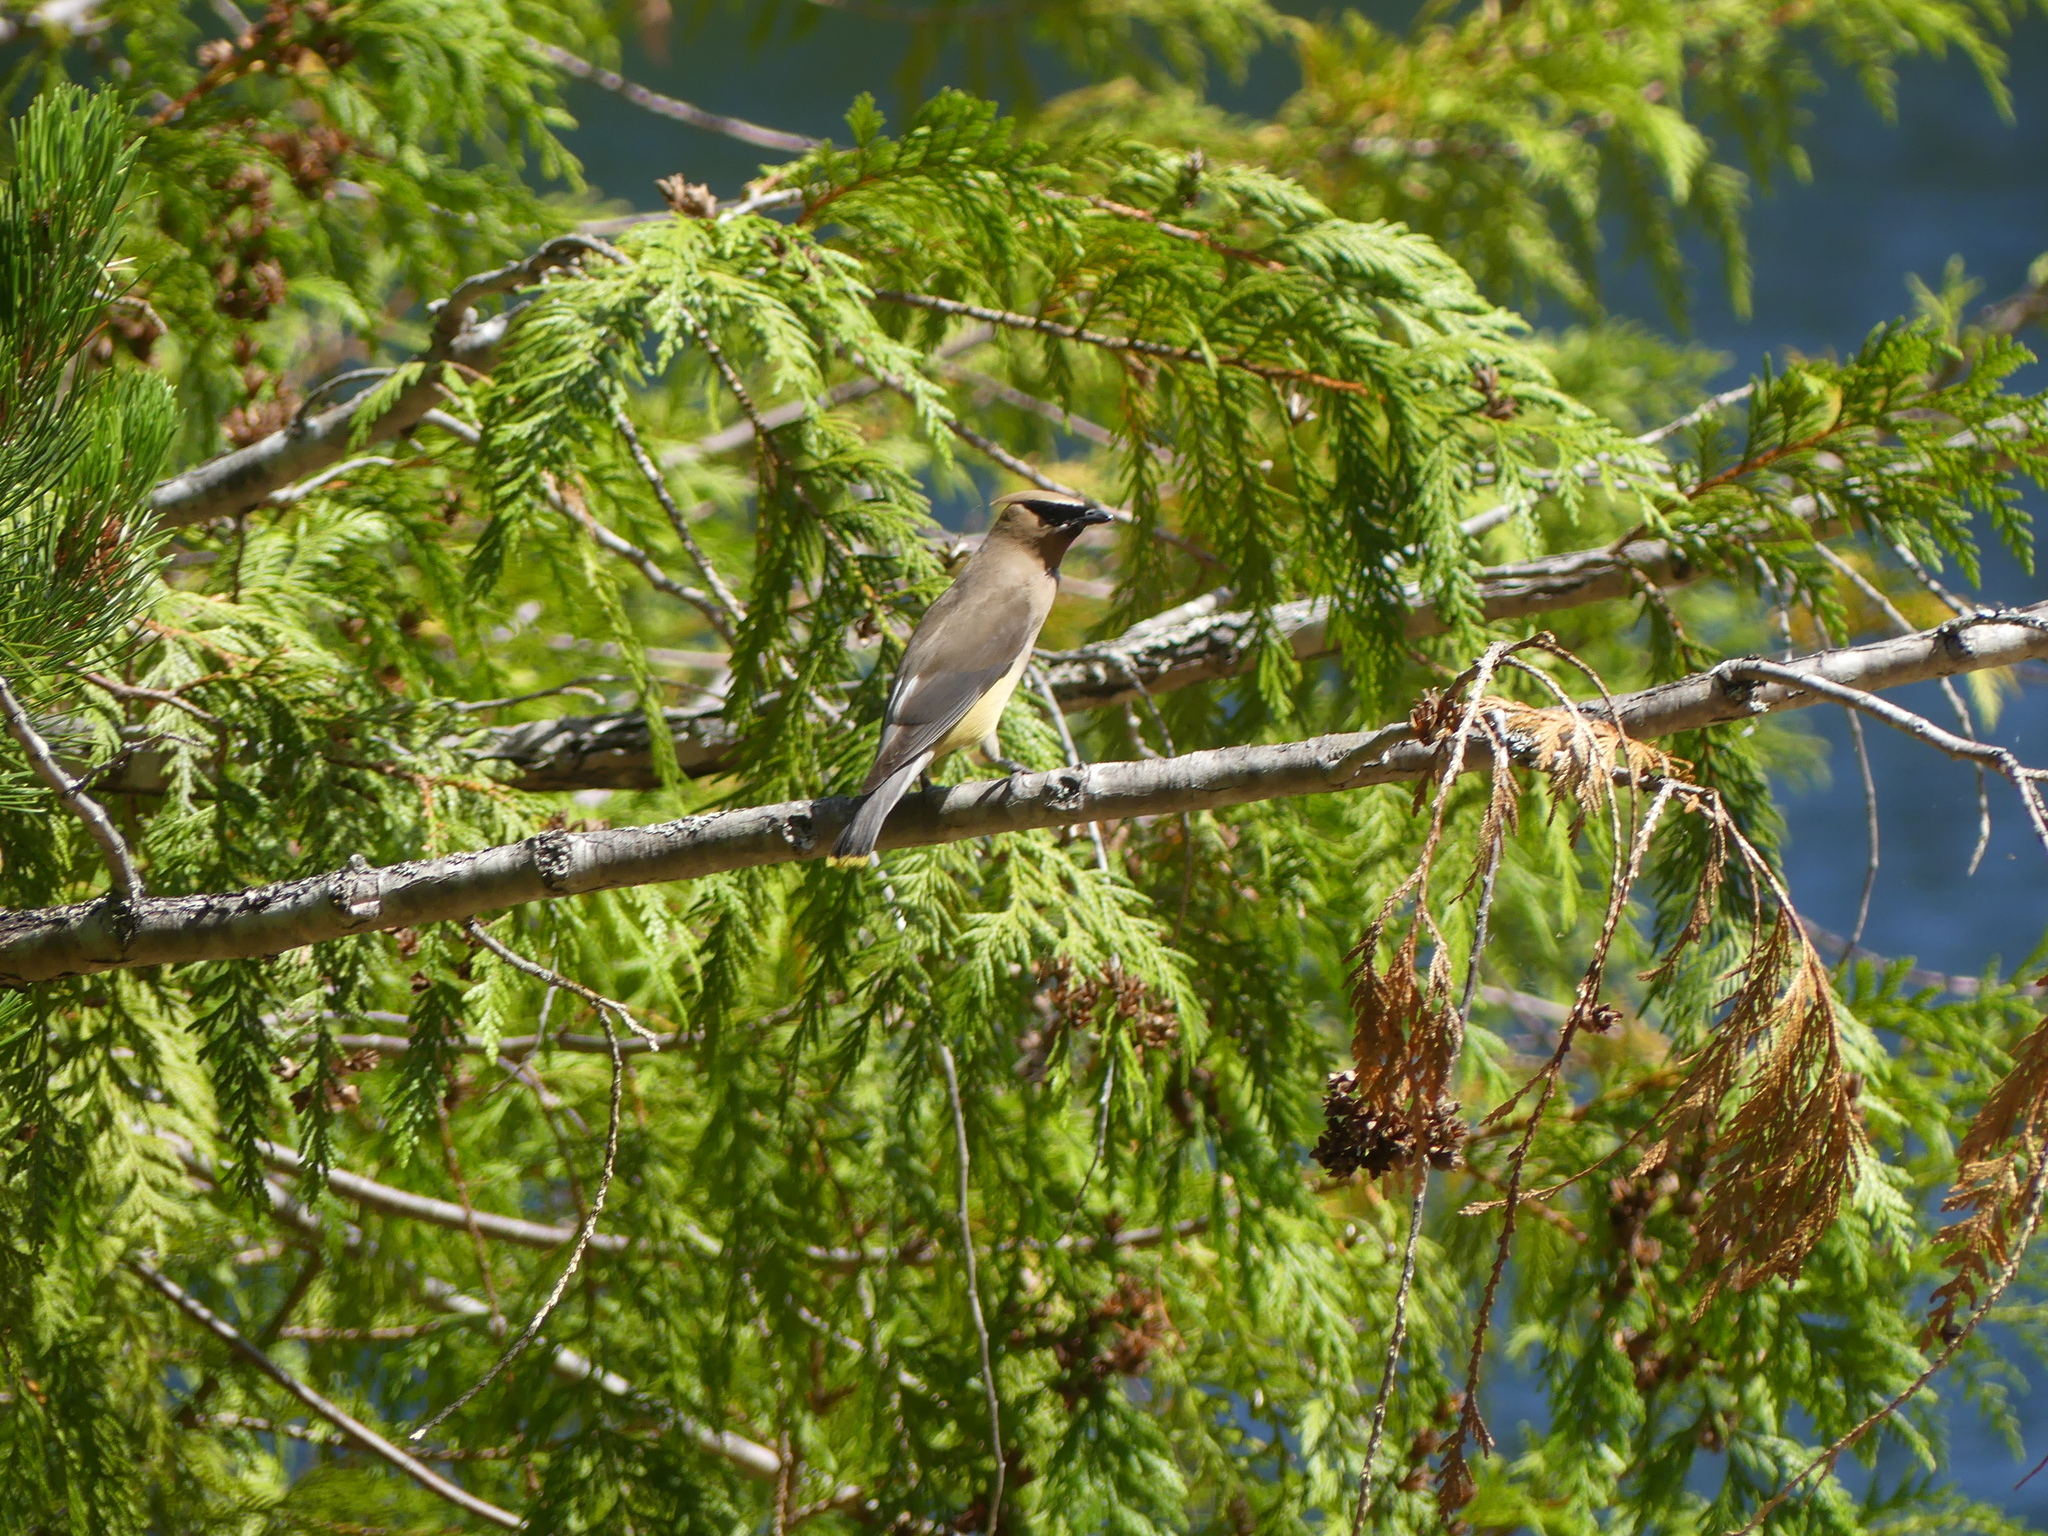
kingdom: Animalia
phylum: Chordata
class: Aves
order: Passeriformes
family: Bombycillidae
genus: Bombycilla
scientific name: Bombycilla cedrorum
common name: Cedar waxwing
